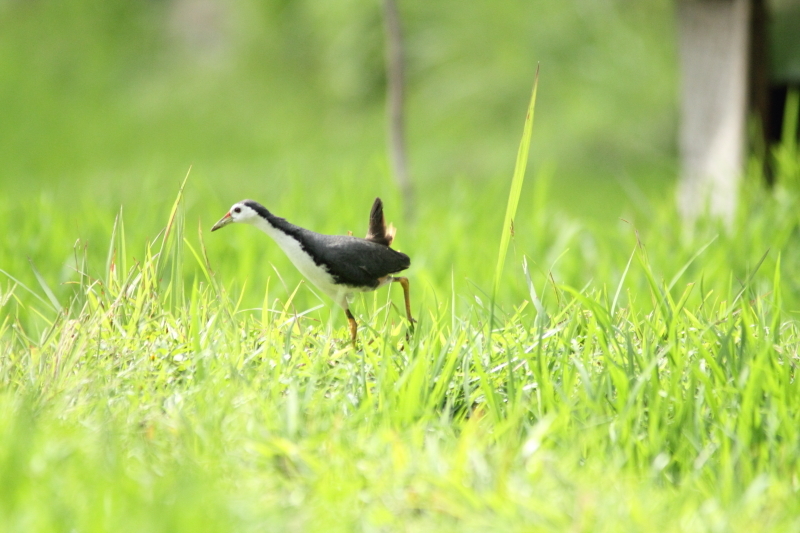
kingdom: Animalia
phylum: Chordata
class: Aves
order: Gruiformes
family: Rallidae
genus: Amaurornis
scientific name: Amaurornis phoenicurus
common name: White-breasted waterhen
